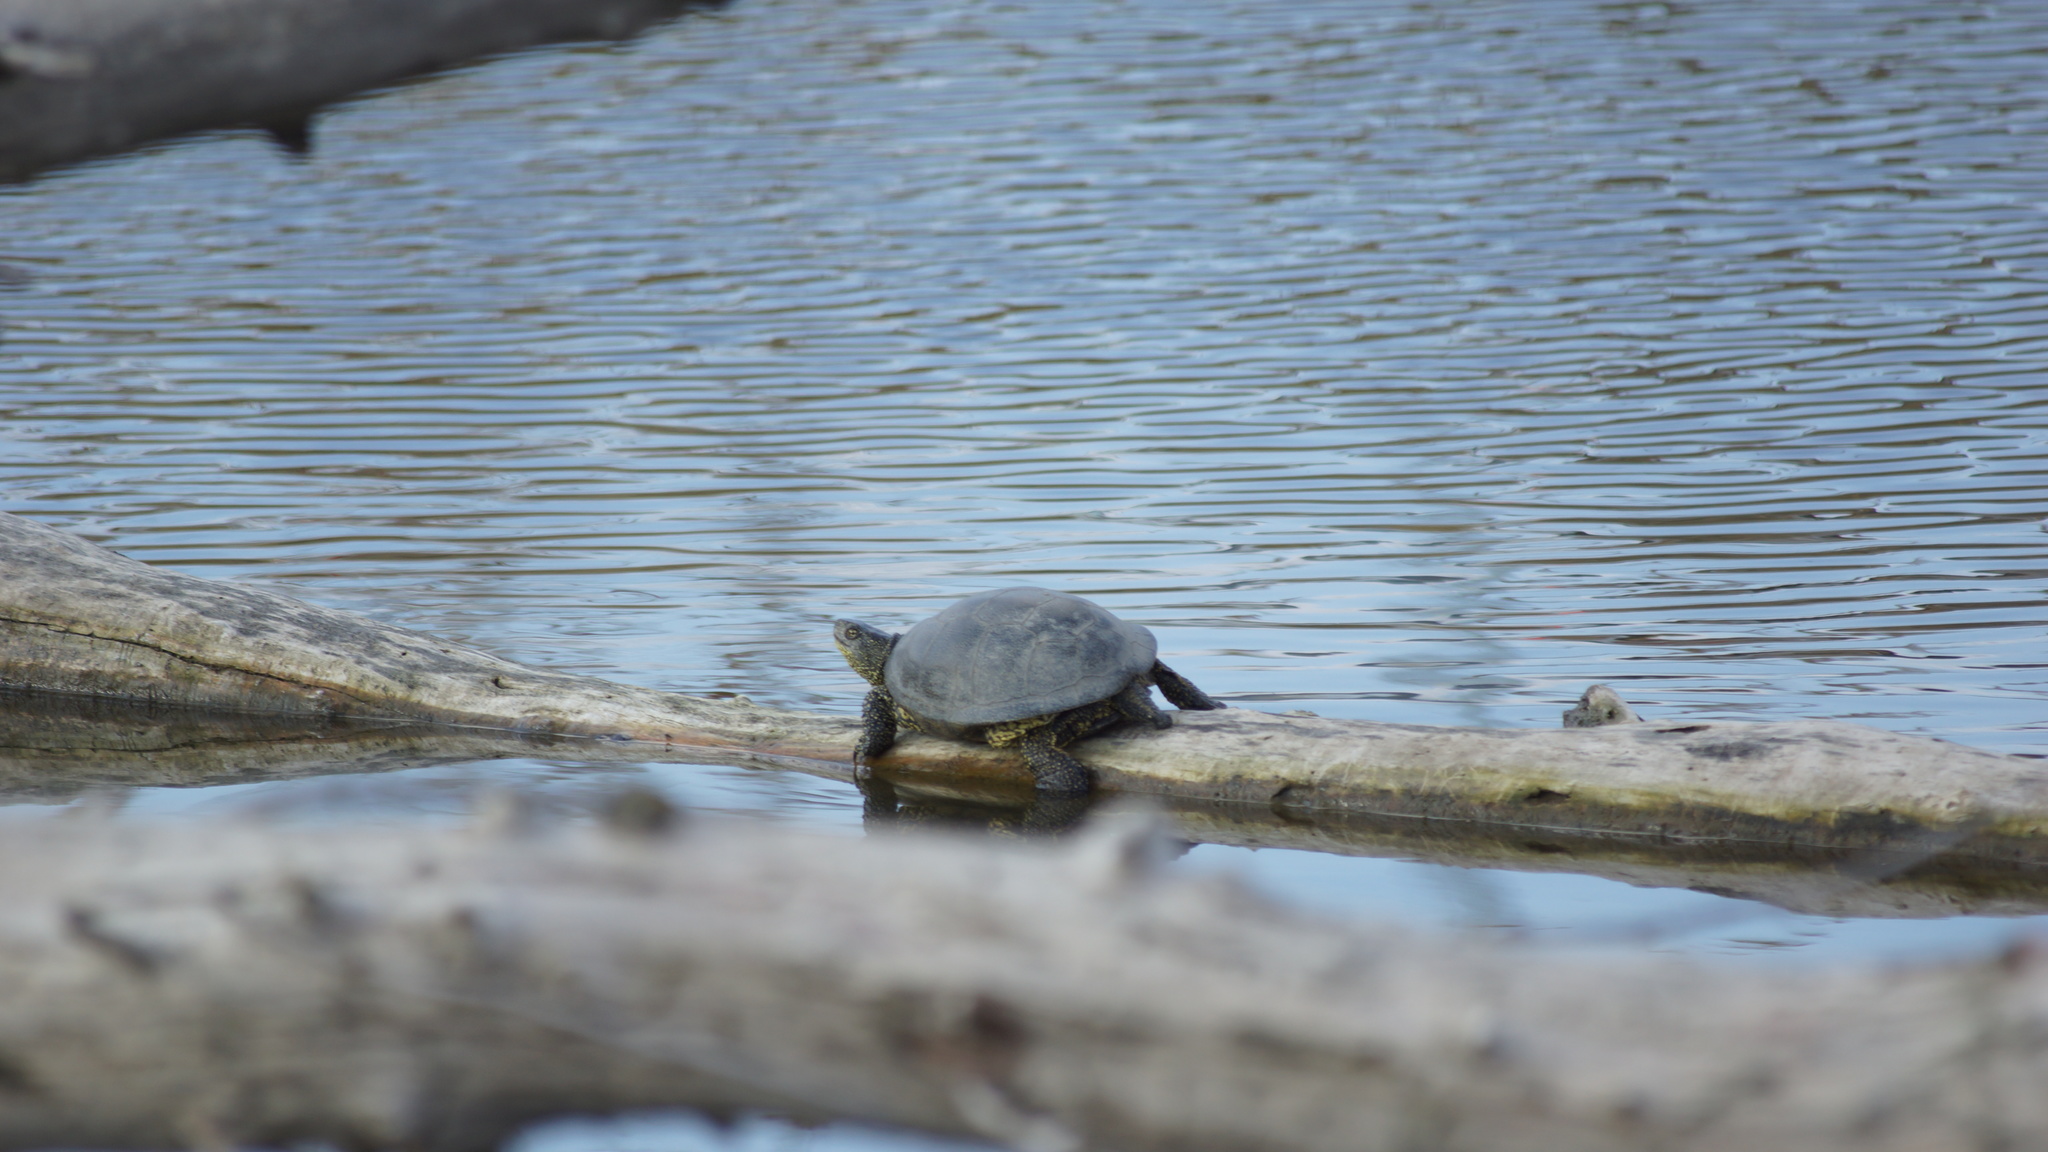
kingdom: Animalia
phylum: Chordata
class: Testudines
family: Emydidae
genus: Emys
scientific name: Emys orbicularis
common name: European pond turtle
